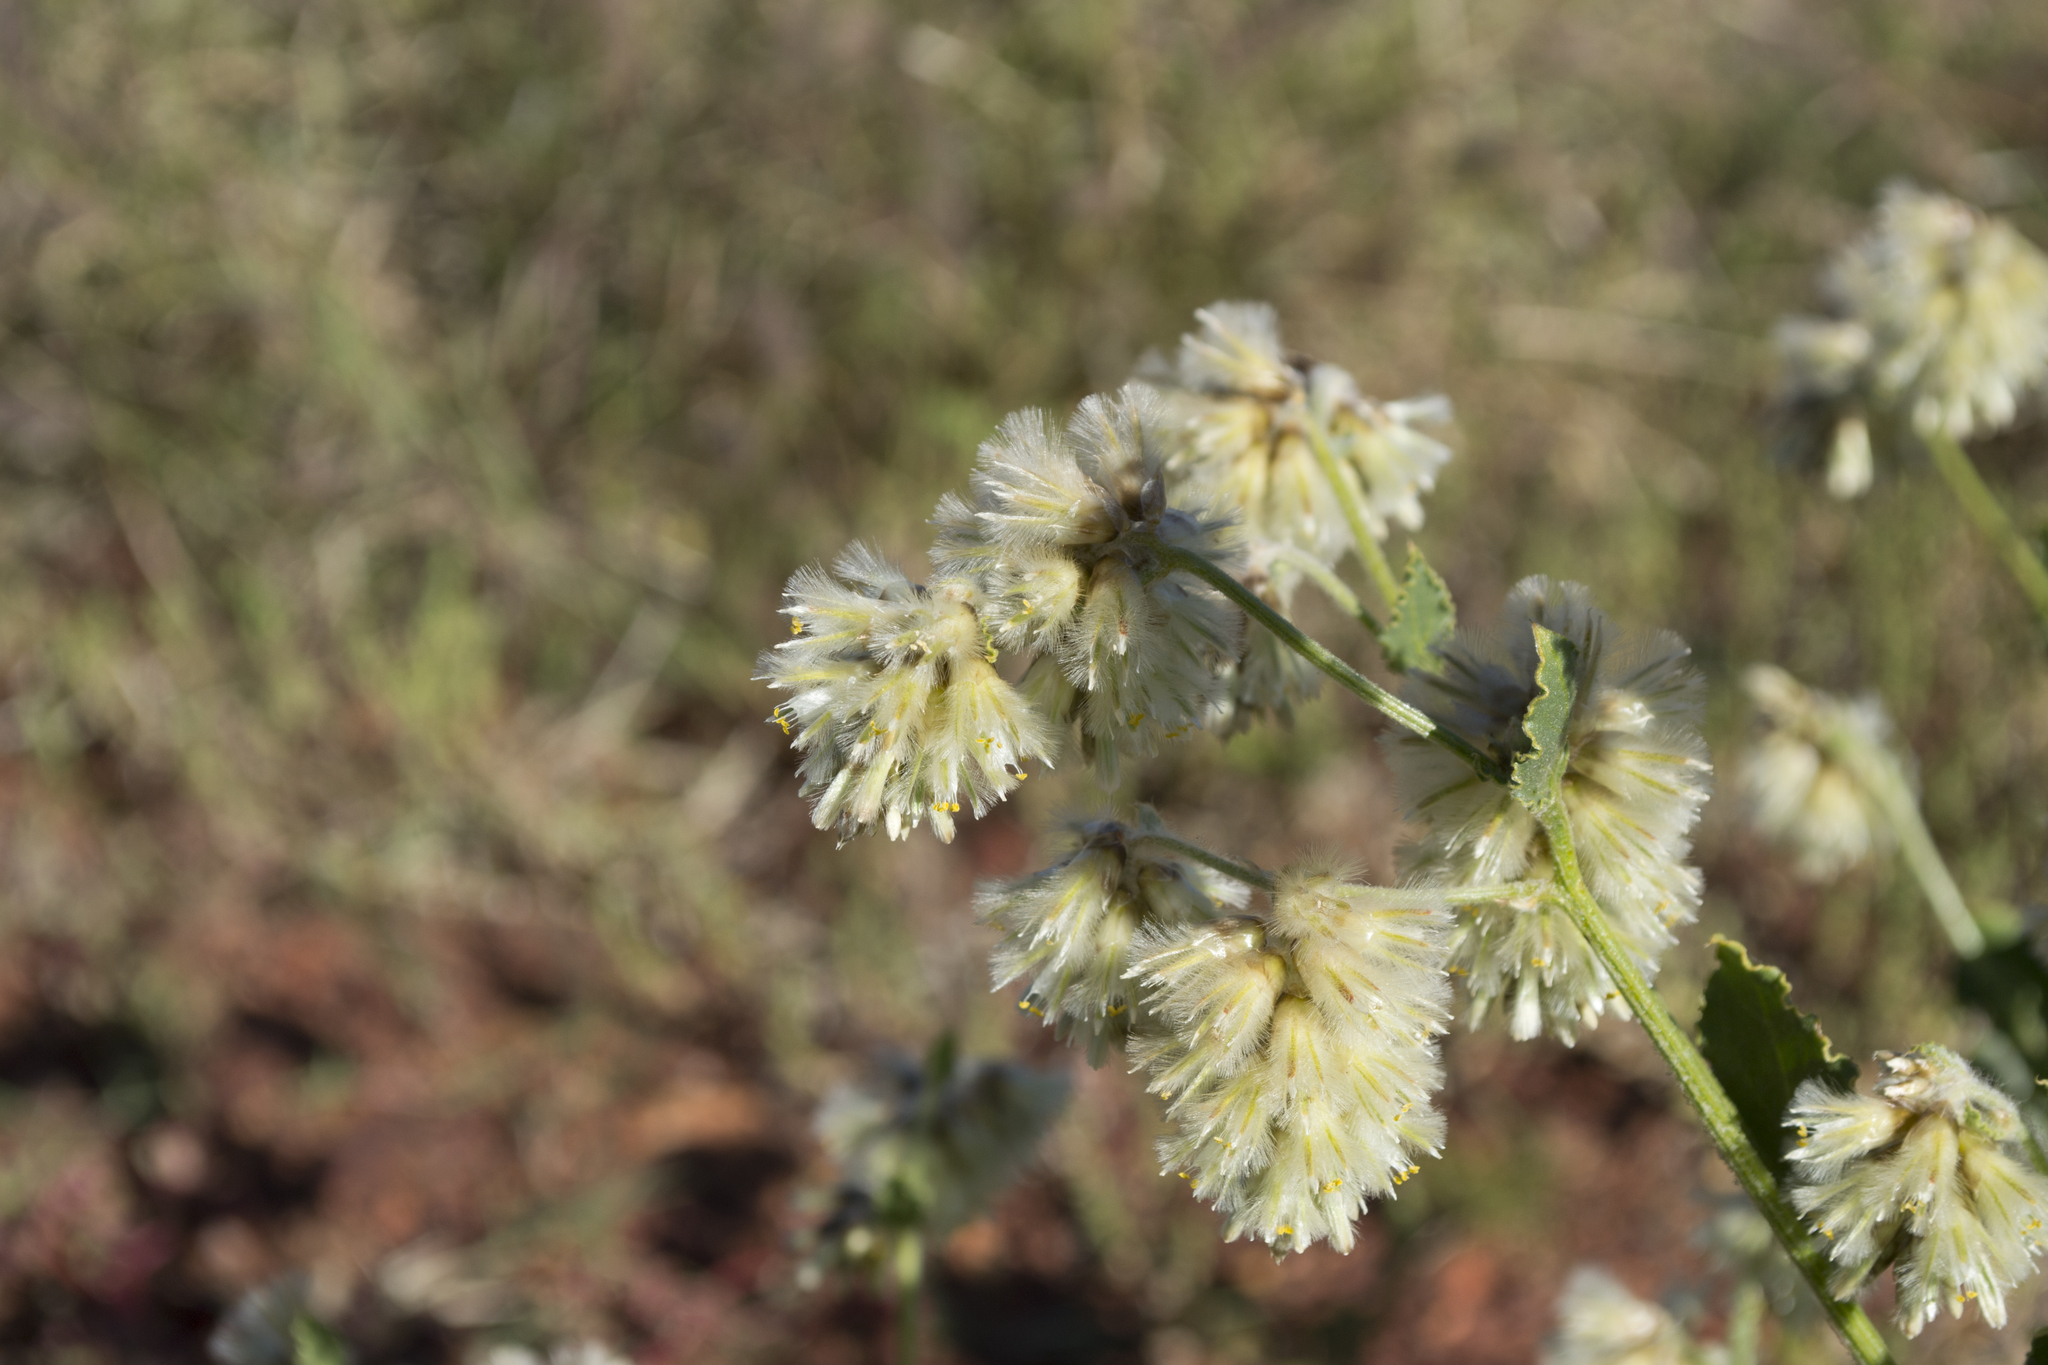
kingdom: Plantae
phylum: Tracheophyta
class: Magnoliopsida
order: Caryophyllales
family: Amaranthaceae
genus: Ptilotus
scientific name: Ptilotus auriculifolius
